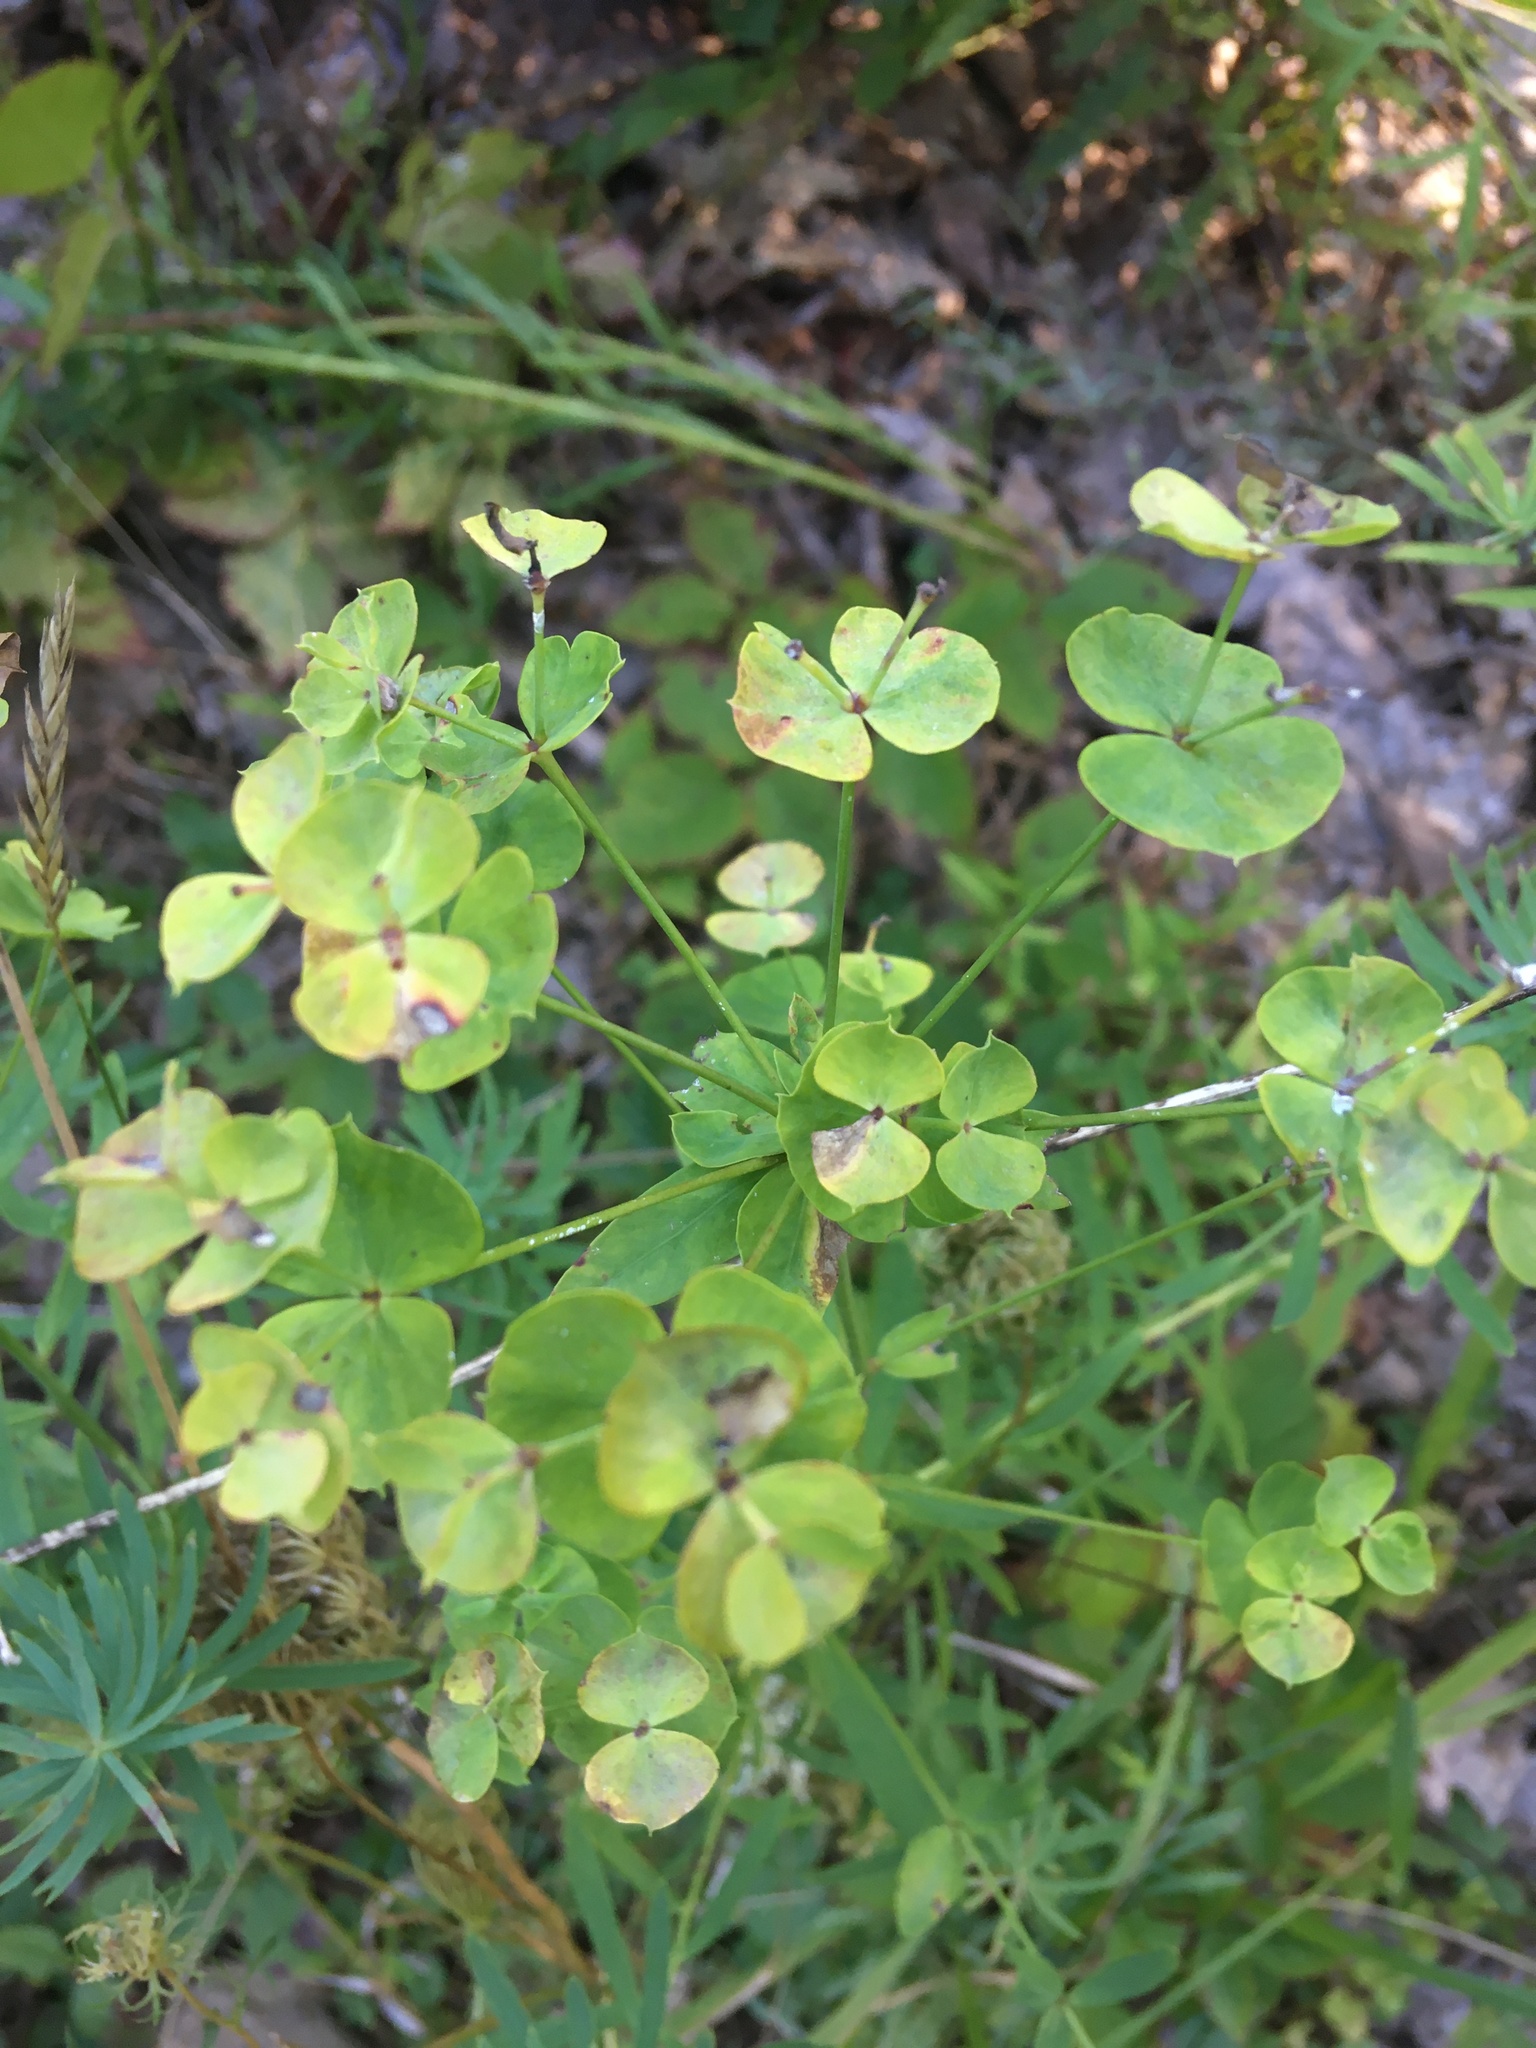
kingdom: Plantae
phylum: Tracheophyta
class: Magnoliopsida
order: Malpighiales
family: Euphorbiaceae
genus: Euphorbia
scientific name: Euphorbia cyparissias
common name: Cypress spurge
